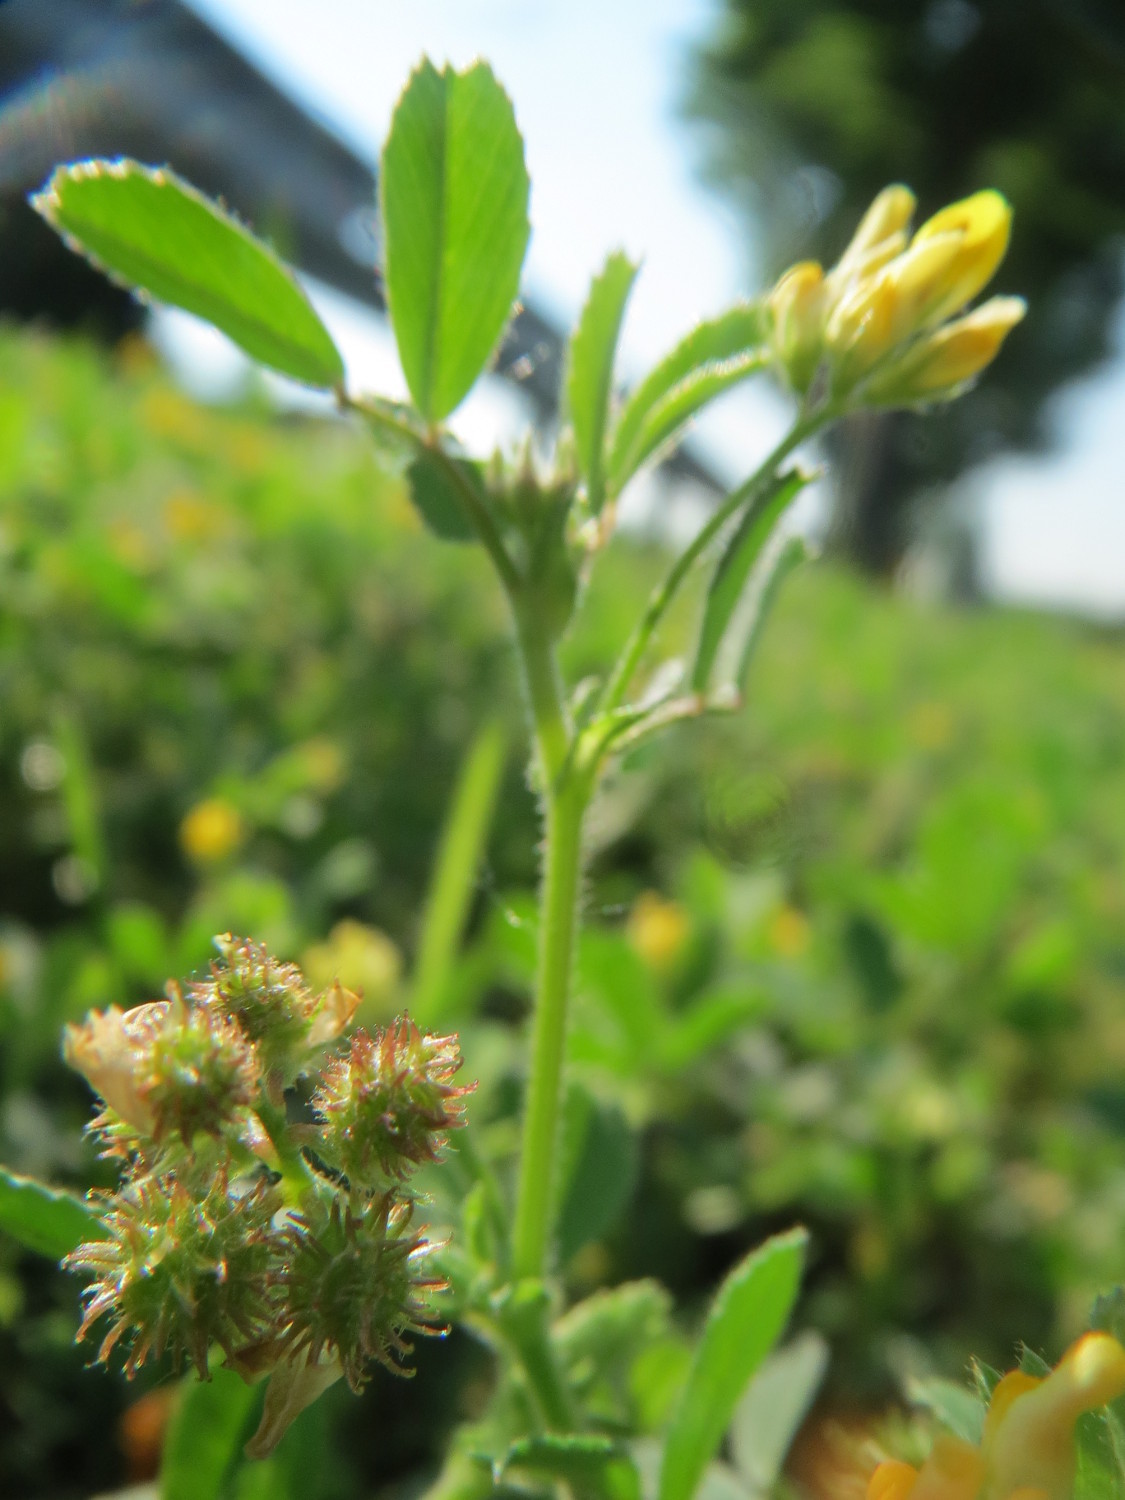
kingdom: Plantae
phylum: Tracheophyta
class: Magnoliopsida
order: Fabales
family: Fabaceae
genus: Medicago
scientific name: Medicago minima
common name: Little bur-clover
